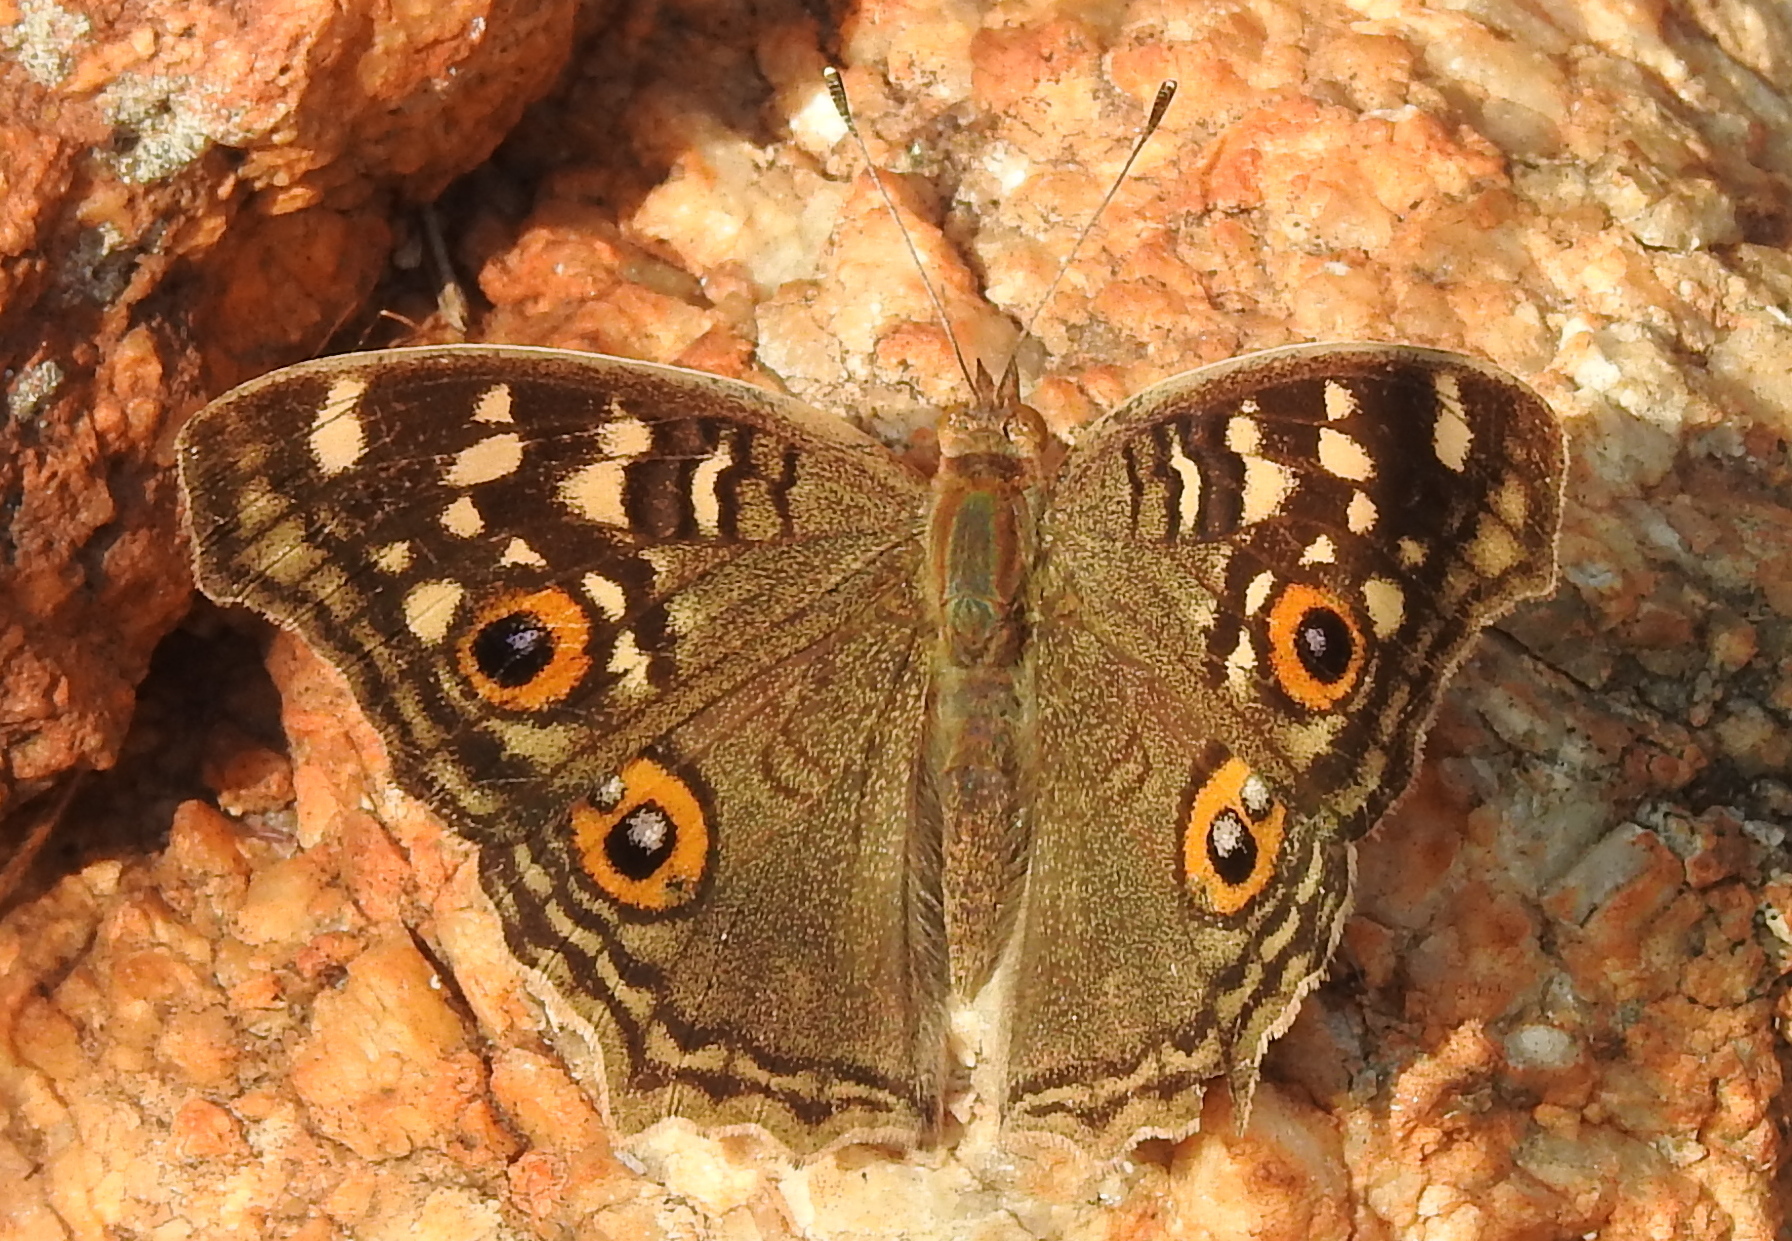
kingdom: Animalia
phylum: Arthropoda
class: Insecta
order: Lepidoptera
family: Nymphalidae
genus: Junonia
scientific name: Junonia lemonias
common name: Lemon pansy
